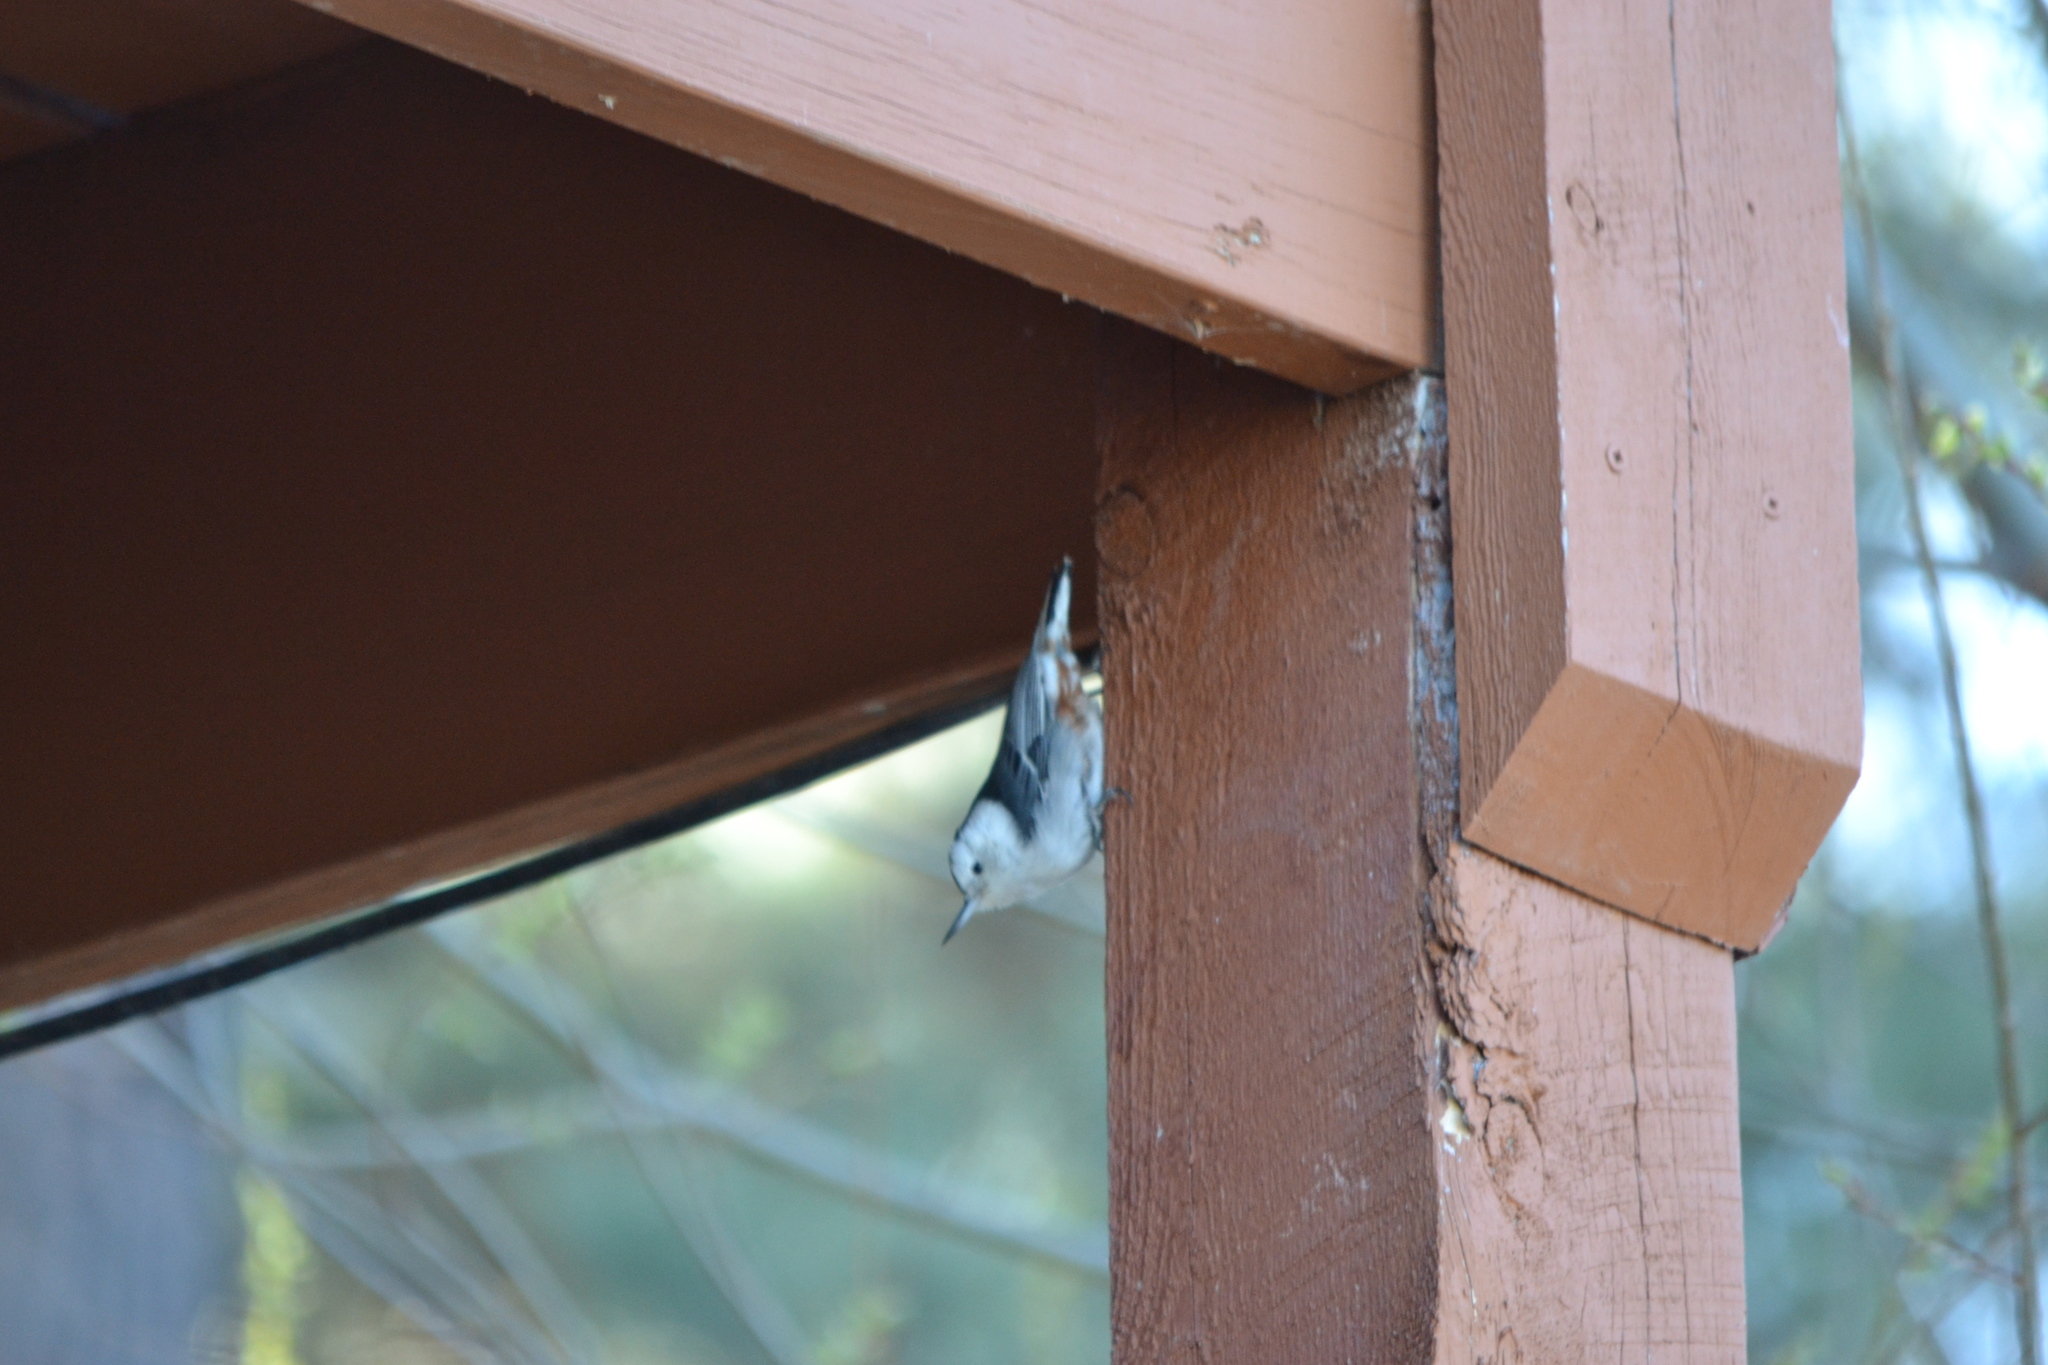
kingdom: Animalia
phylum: Chordata
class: Aves
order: Passeriformes
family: Sittidae
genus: Sitta
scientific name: Sitta carolinensis
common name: White-breasted nuthatch
